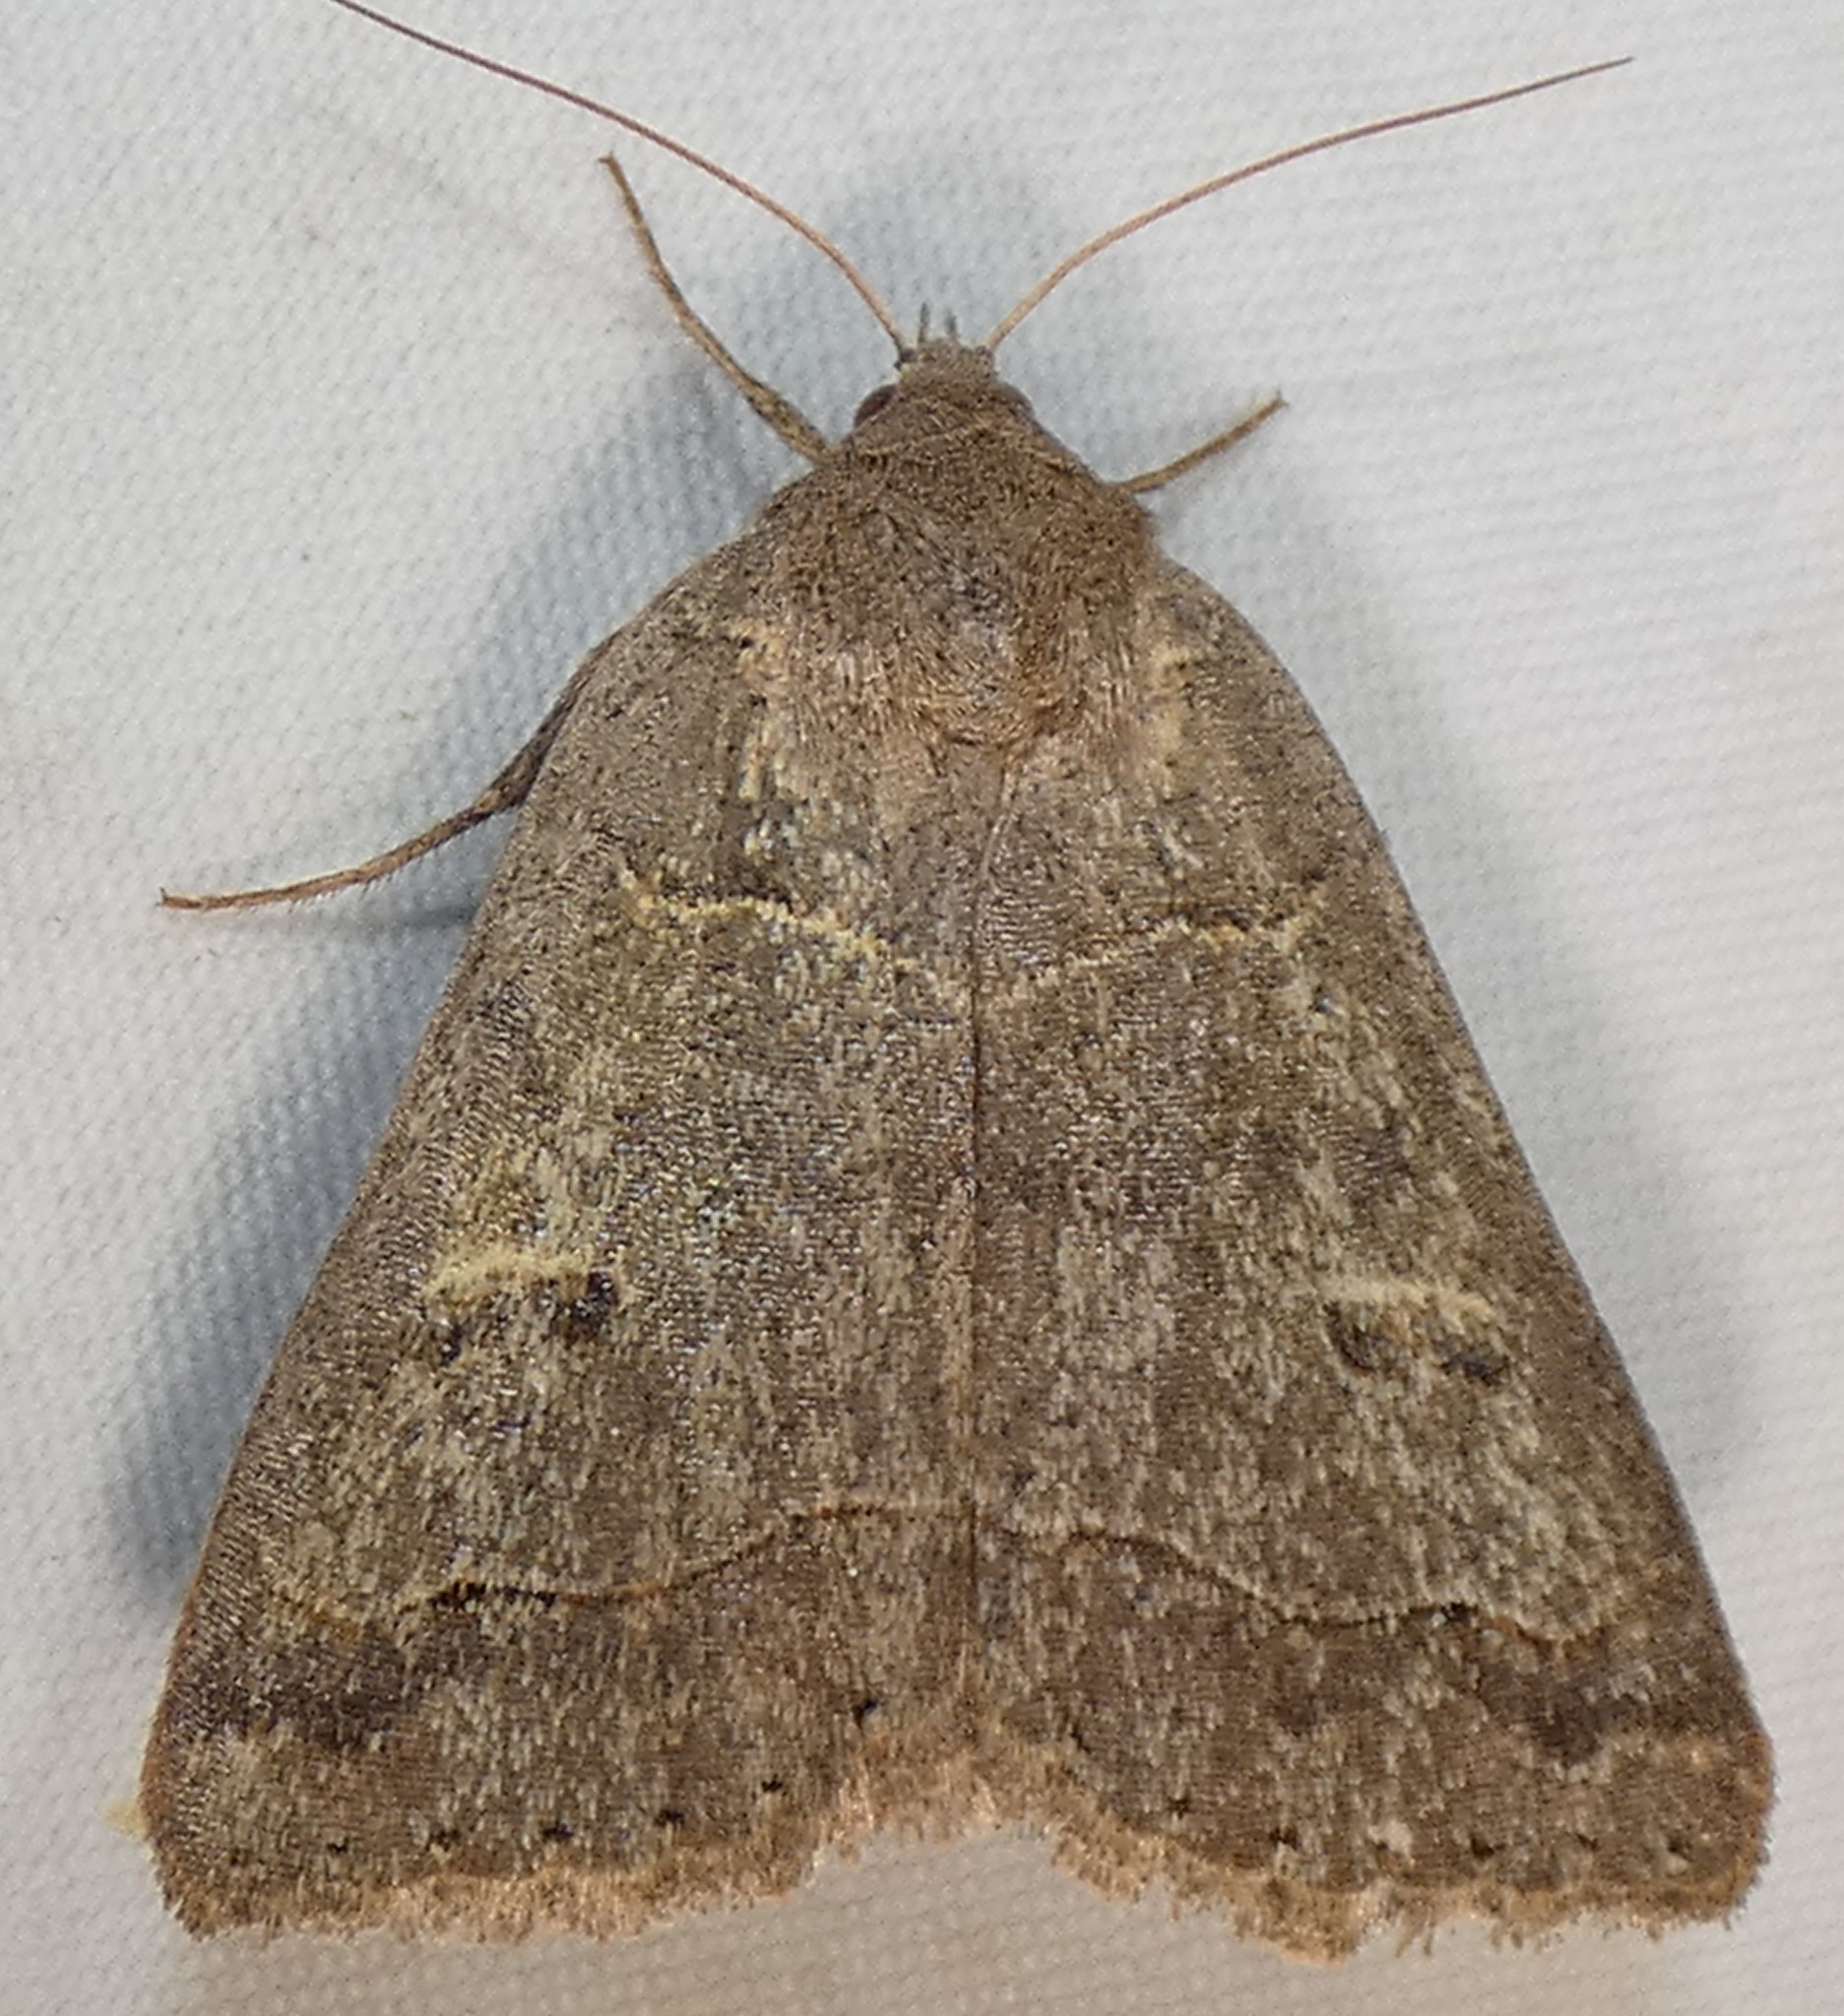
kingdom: Animalia
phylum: Arthropoda
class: Insecta
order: Lepidoptera
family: Erebidae
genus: Phoberia
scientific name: Phoberia atomaris
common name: Common oak moth
